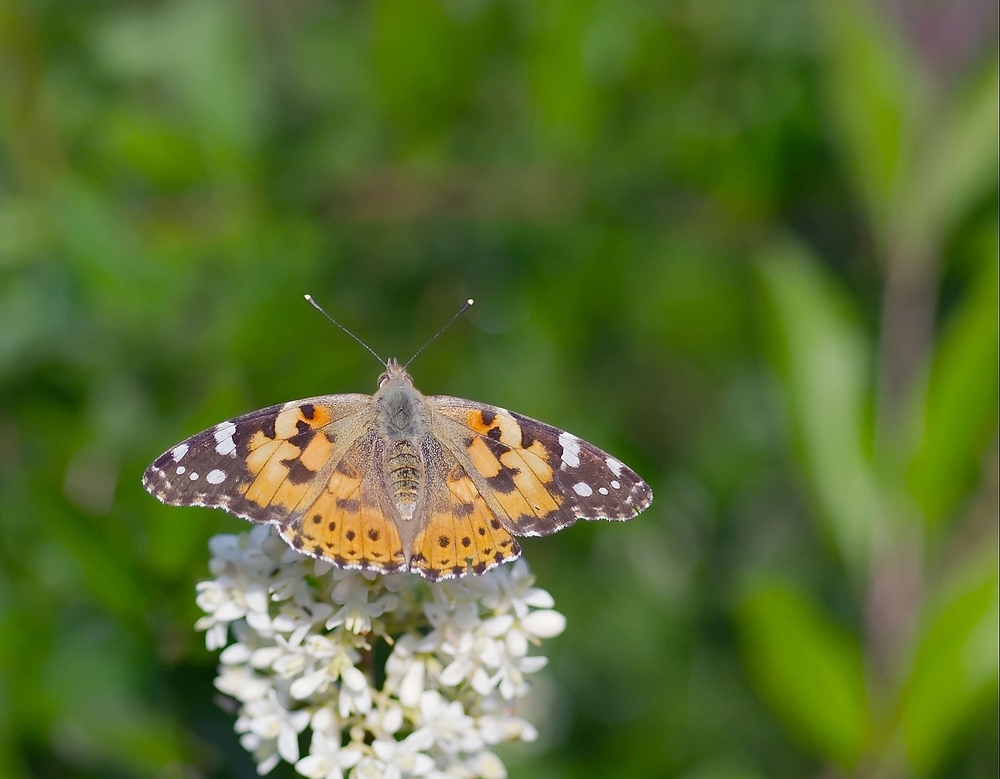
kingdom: Animalia
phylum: Arthropoda
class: Insecta
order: Lepidoptera
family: Nymphalidae
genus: Vanessa
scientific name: Vanessa cardui
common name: Painted lady
